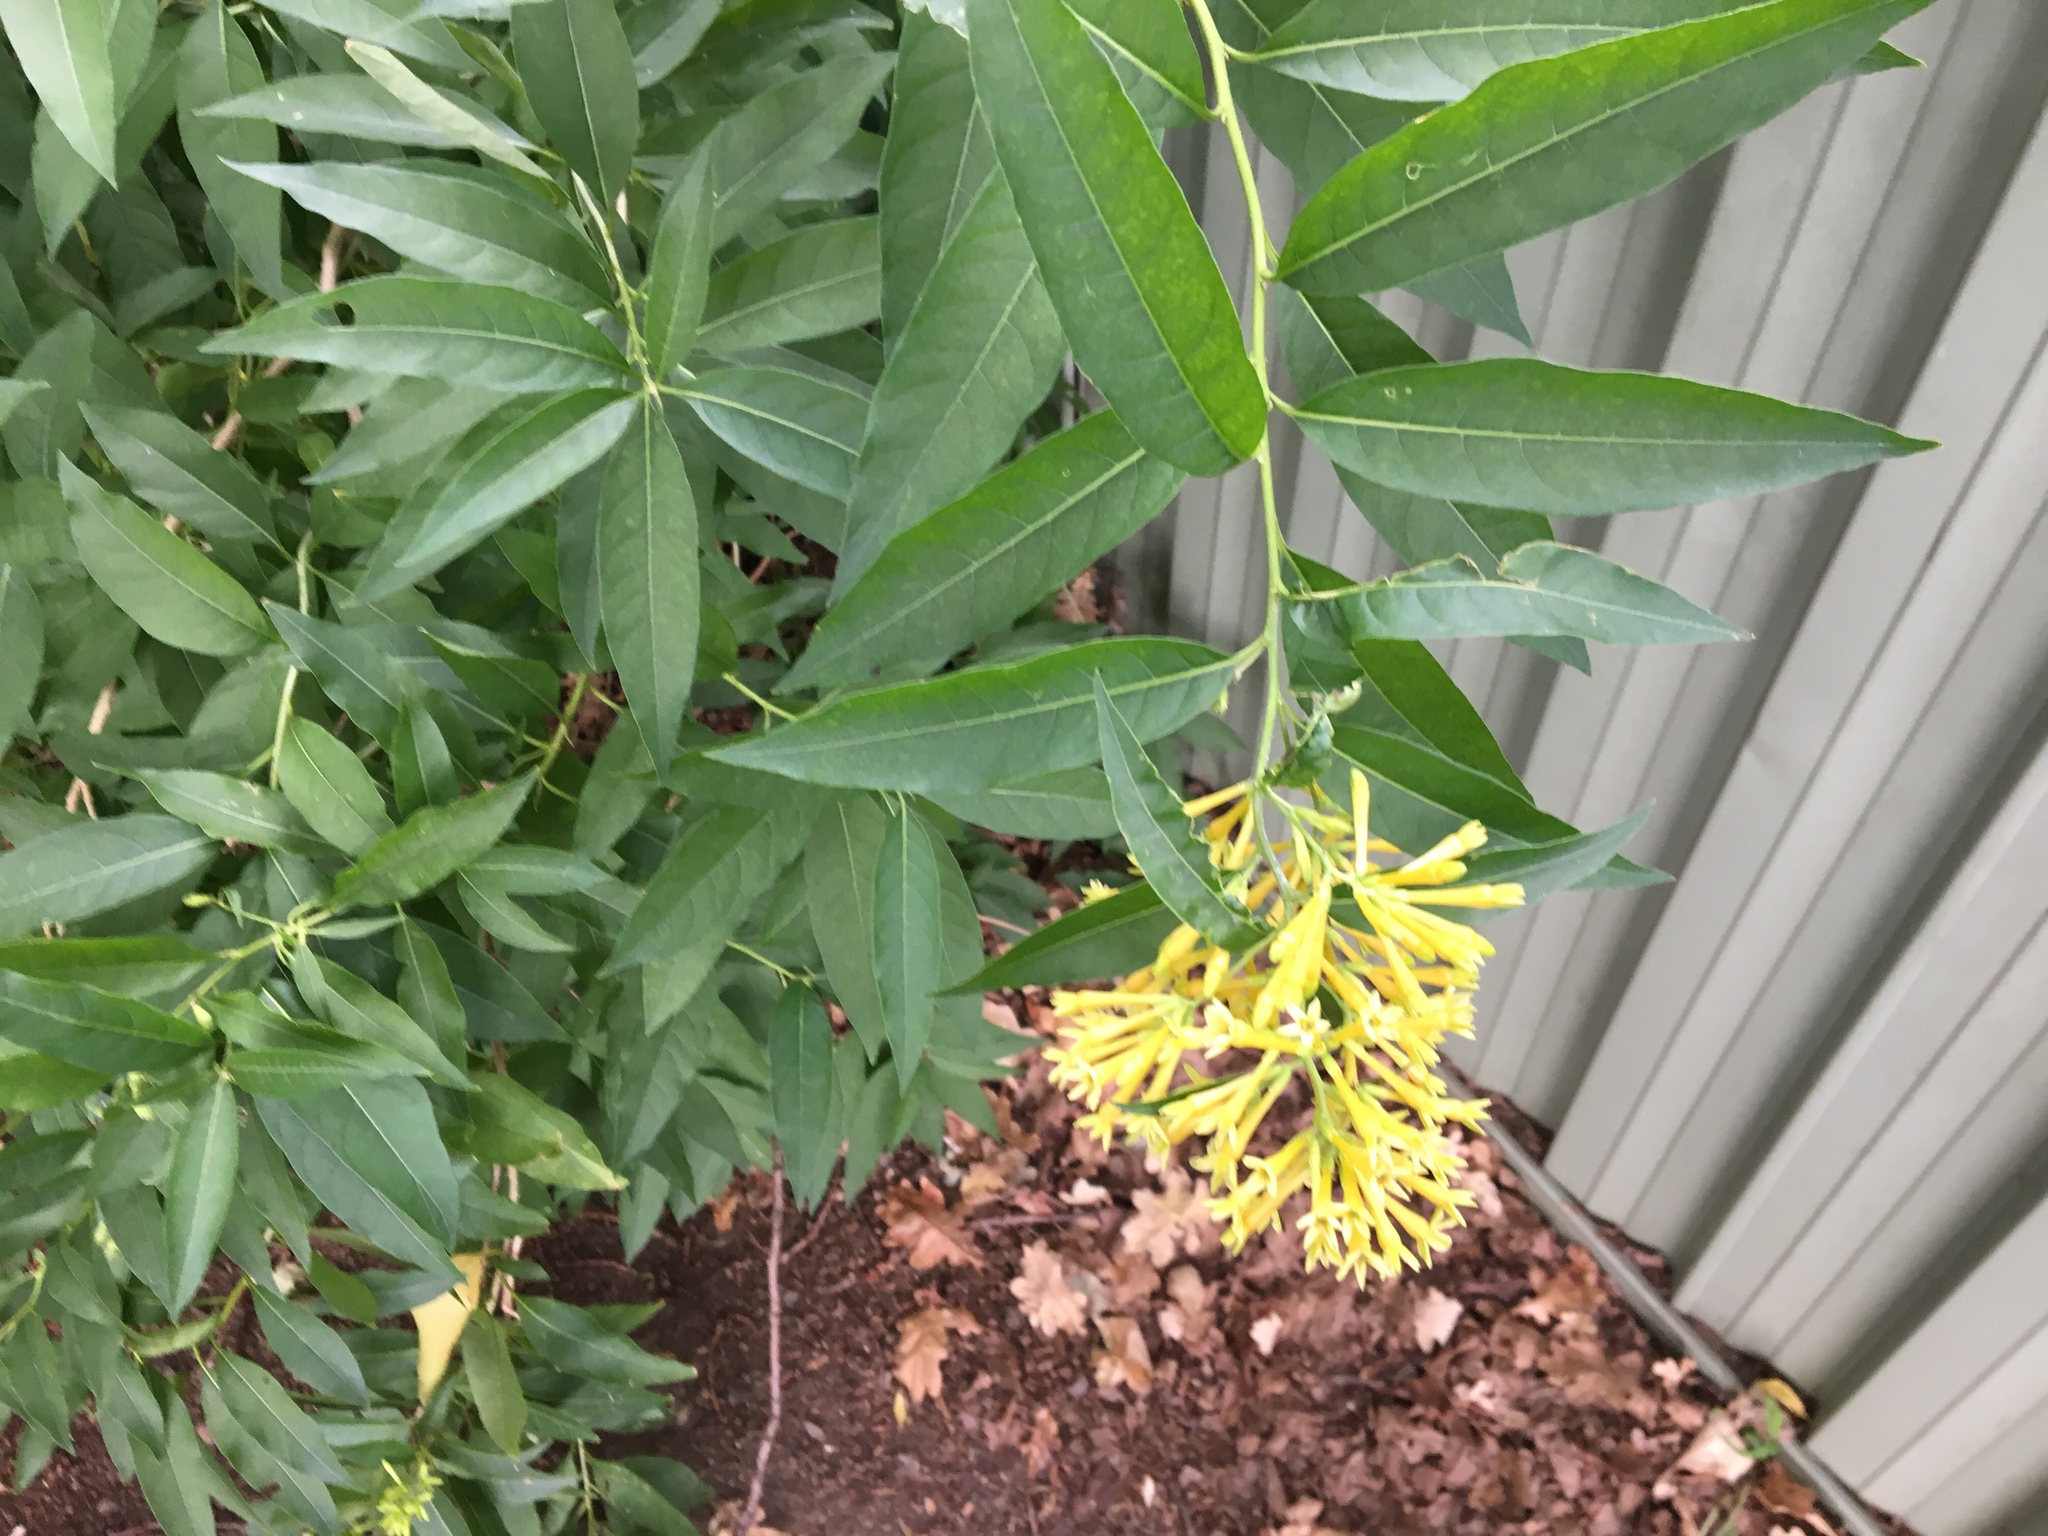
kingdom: Plantae
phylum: Tracheophyta
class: Magnoliopsida
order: Solanales
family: Solanaceae
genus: Cestrum
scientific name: Cestrum parqui
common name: Chilean cestrum
